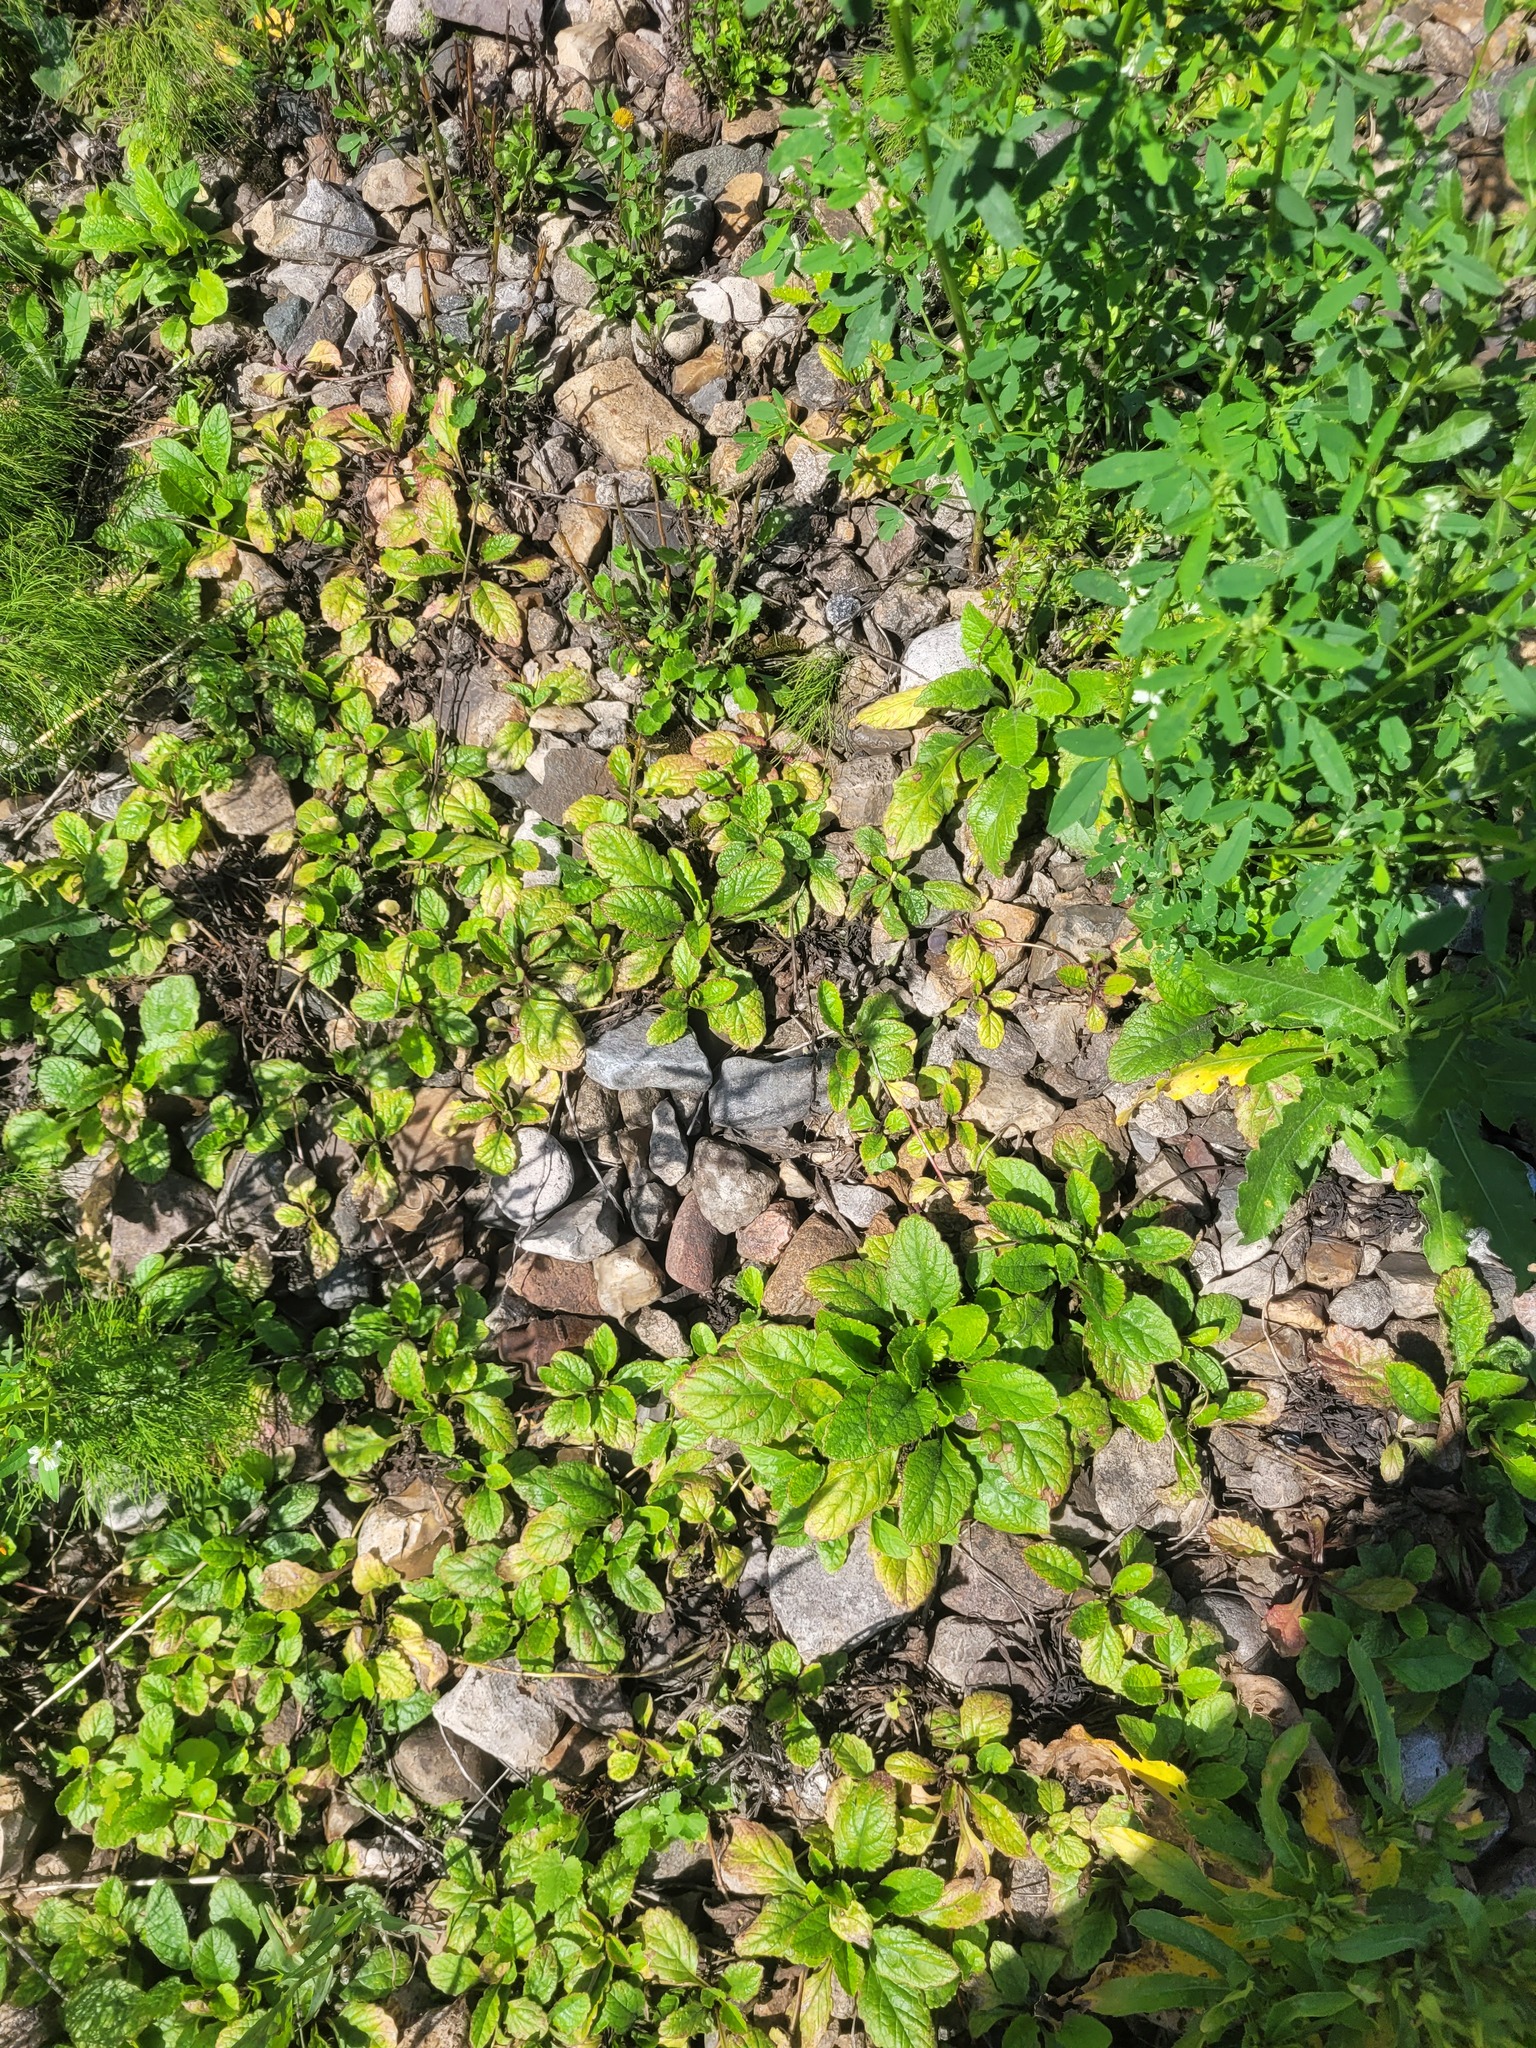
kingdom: Plantae
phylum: Tracheophyta
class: Magnoliopsida
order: Lamiales
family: Lamiaceae
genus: Ajuga
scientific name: Ajuga reptans
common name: Bugle
